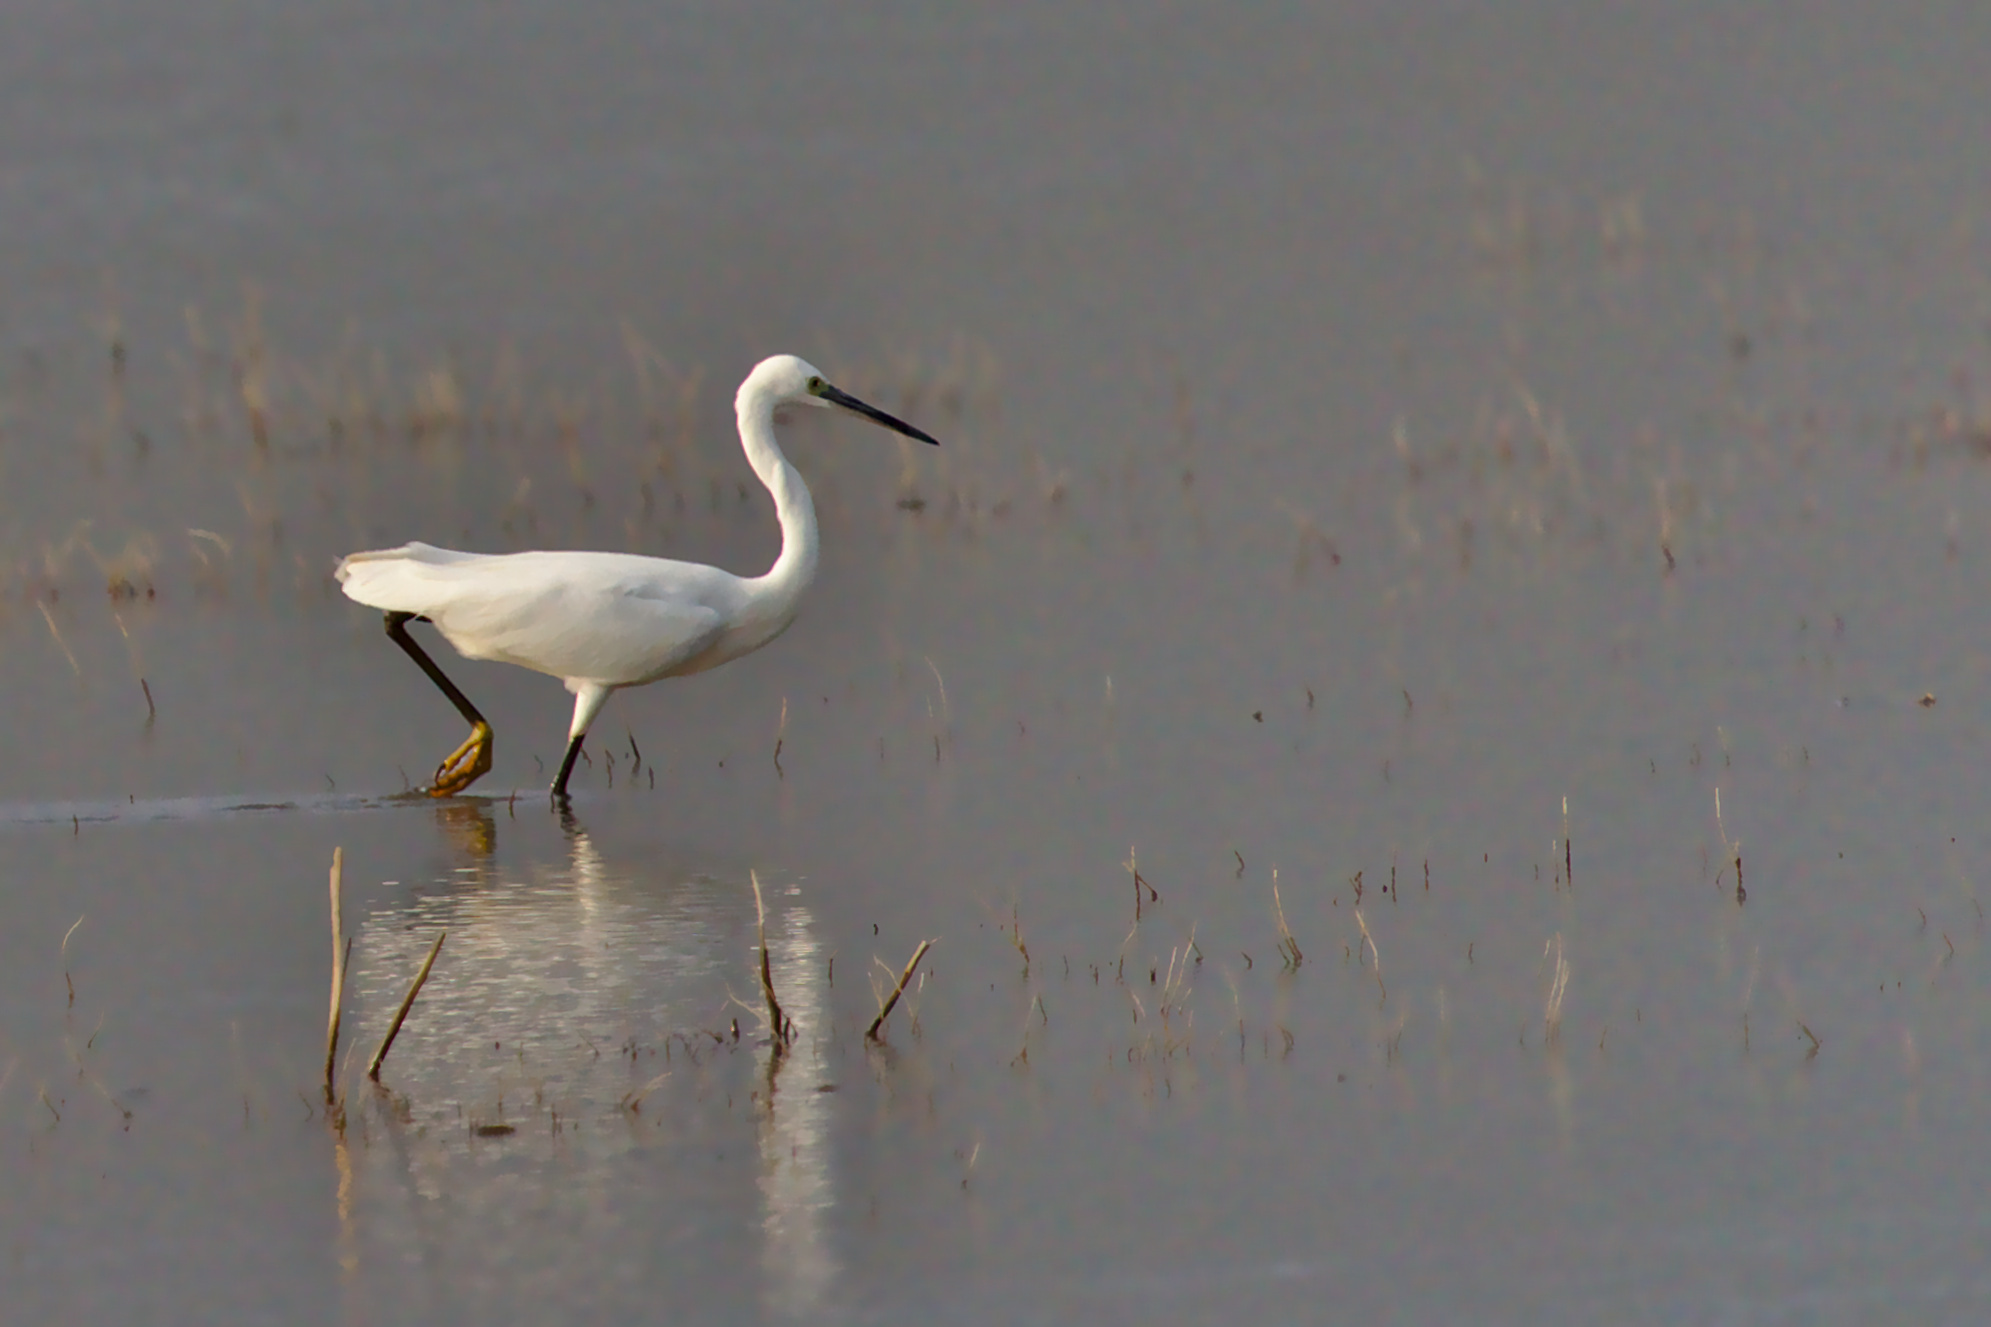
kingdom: Animalia
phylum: Chordata
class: Aves
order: Pelecaniformes
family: Ardeidae
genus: Egretta
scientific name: Egretta garzetta
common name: Little egret
